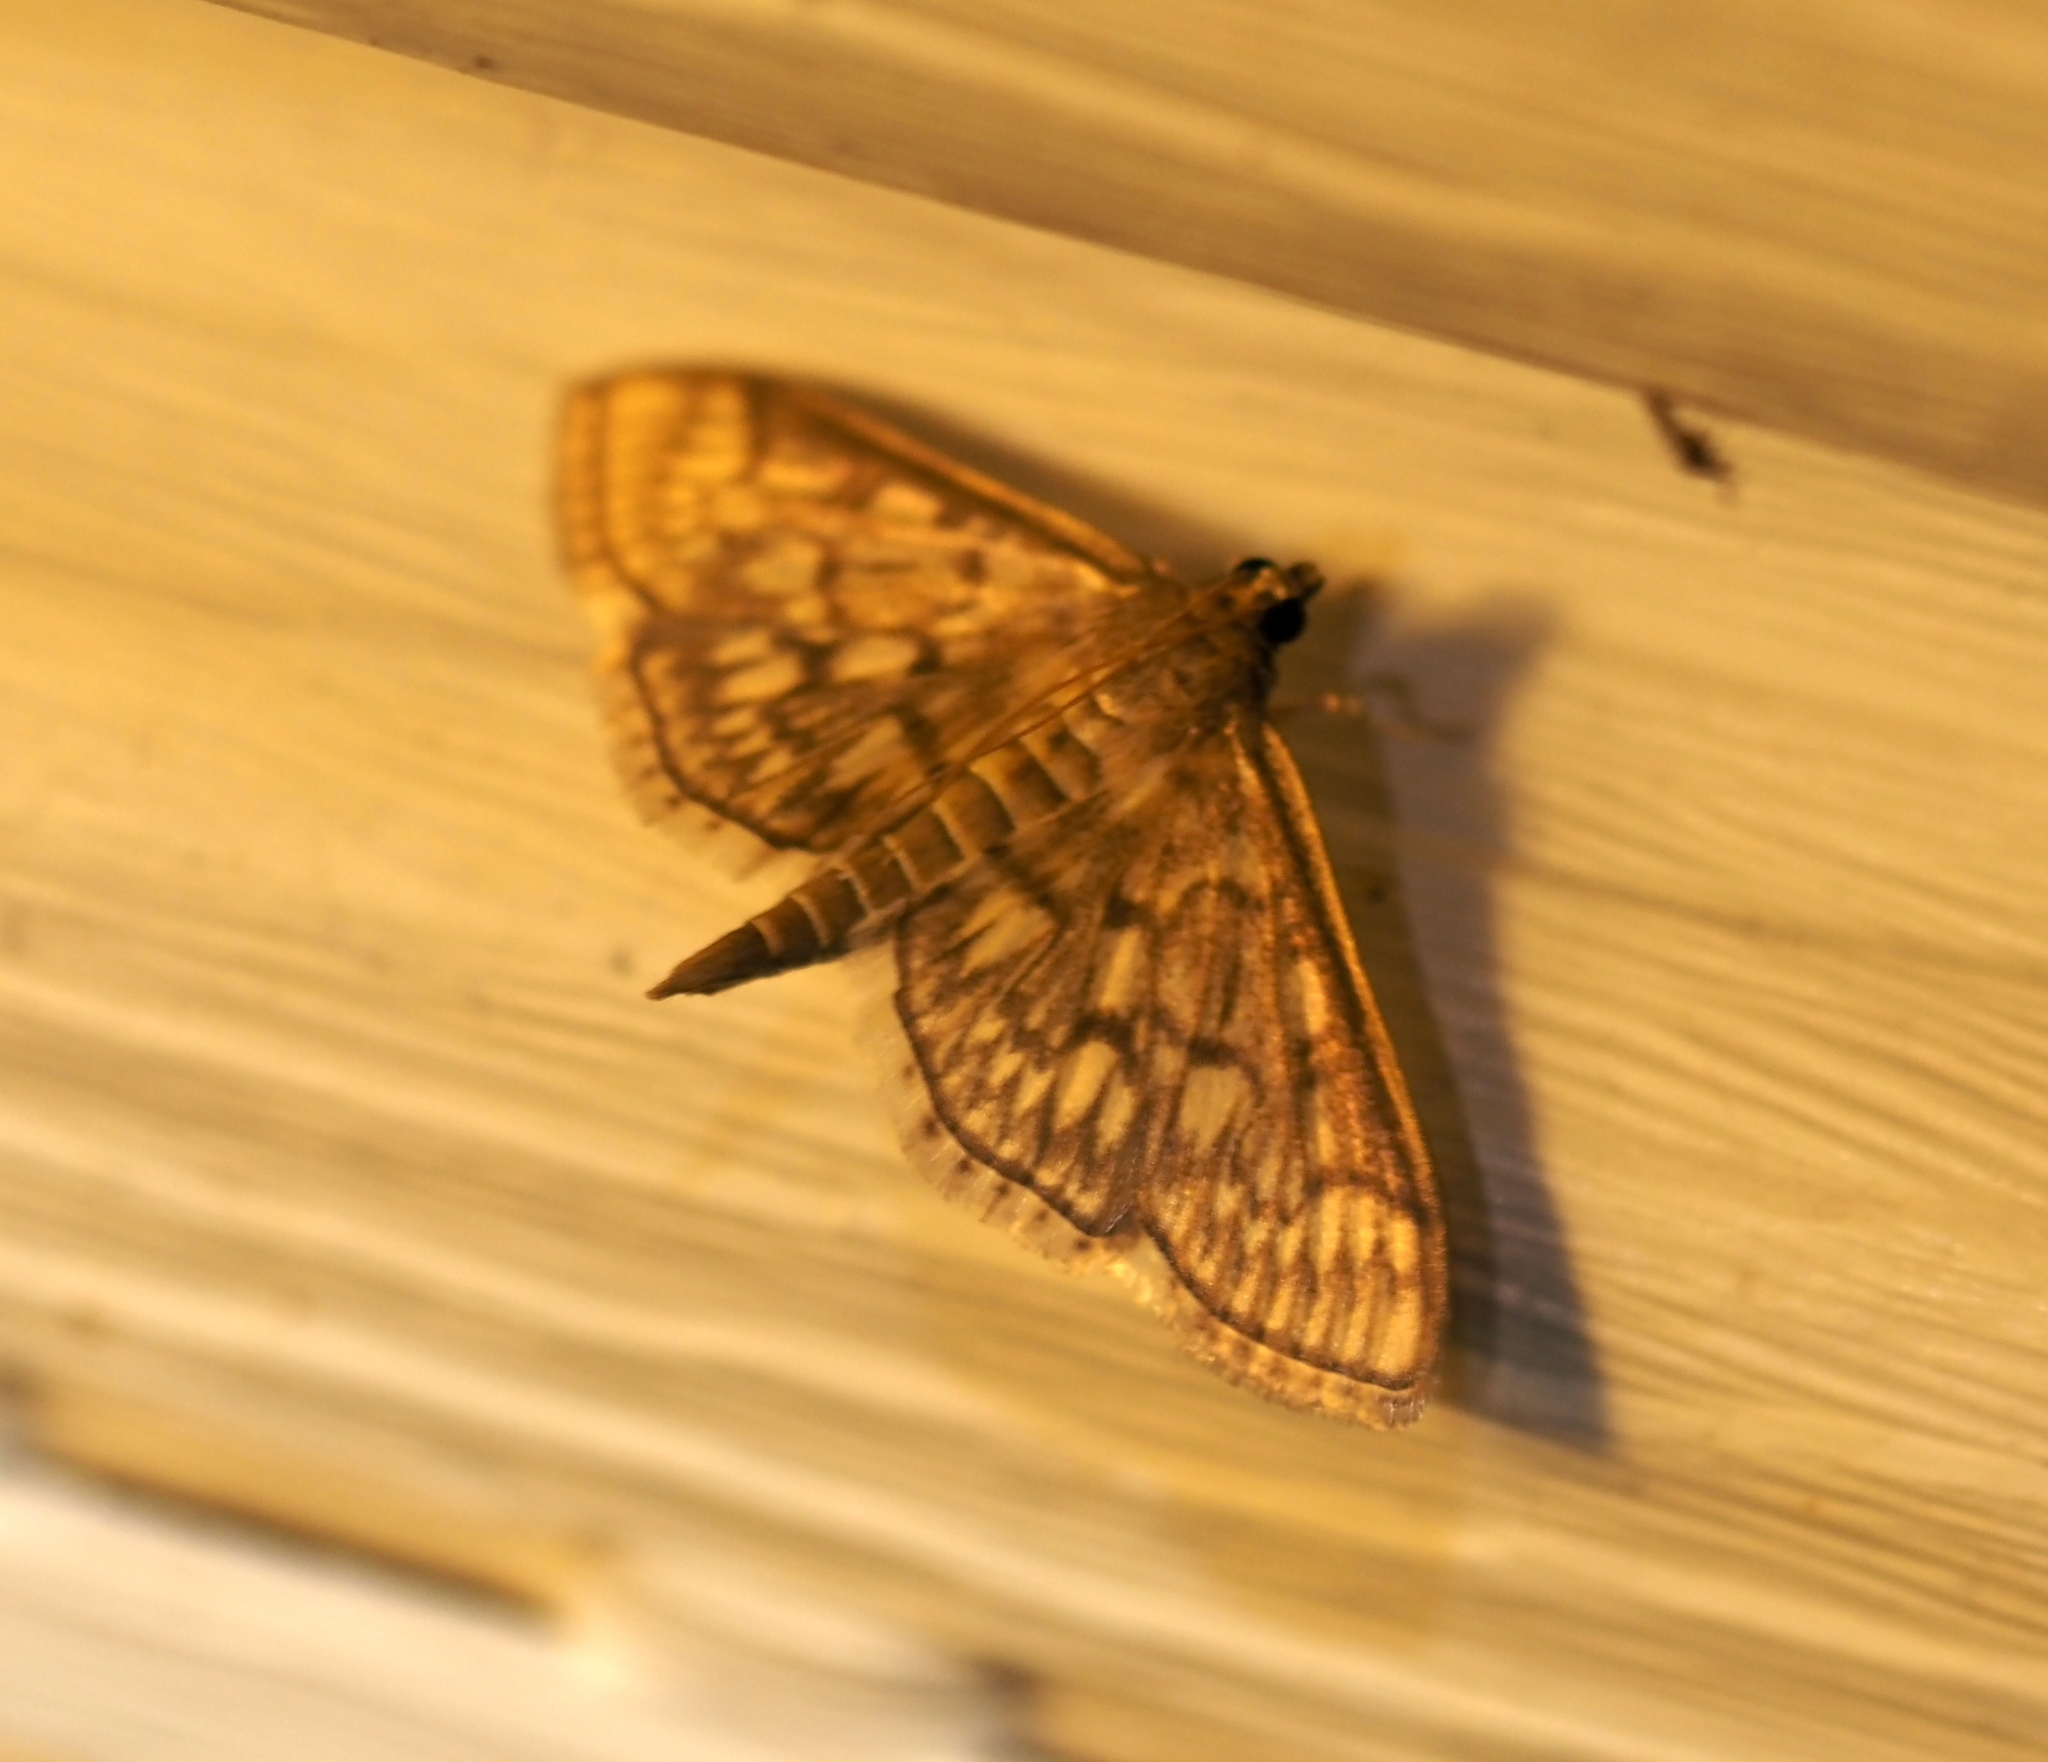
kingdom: Animalia
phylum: Arthropoda
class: Insecta
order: Lepidoptera
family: Crambidae
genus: Herpetogramma
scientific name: Herpetogramma pertextalis
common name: Bold-feathered grass moth
